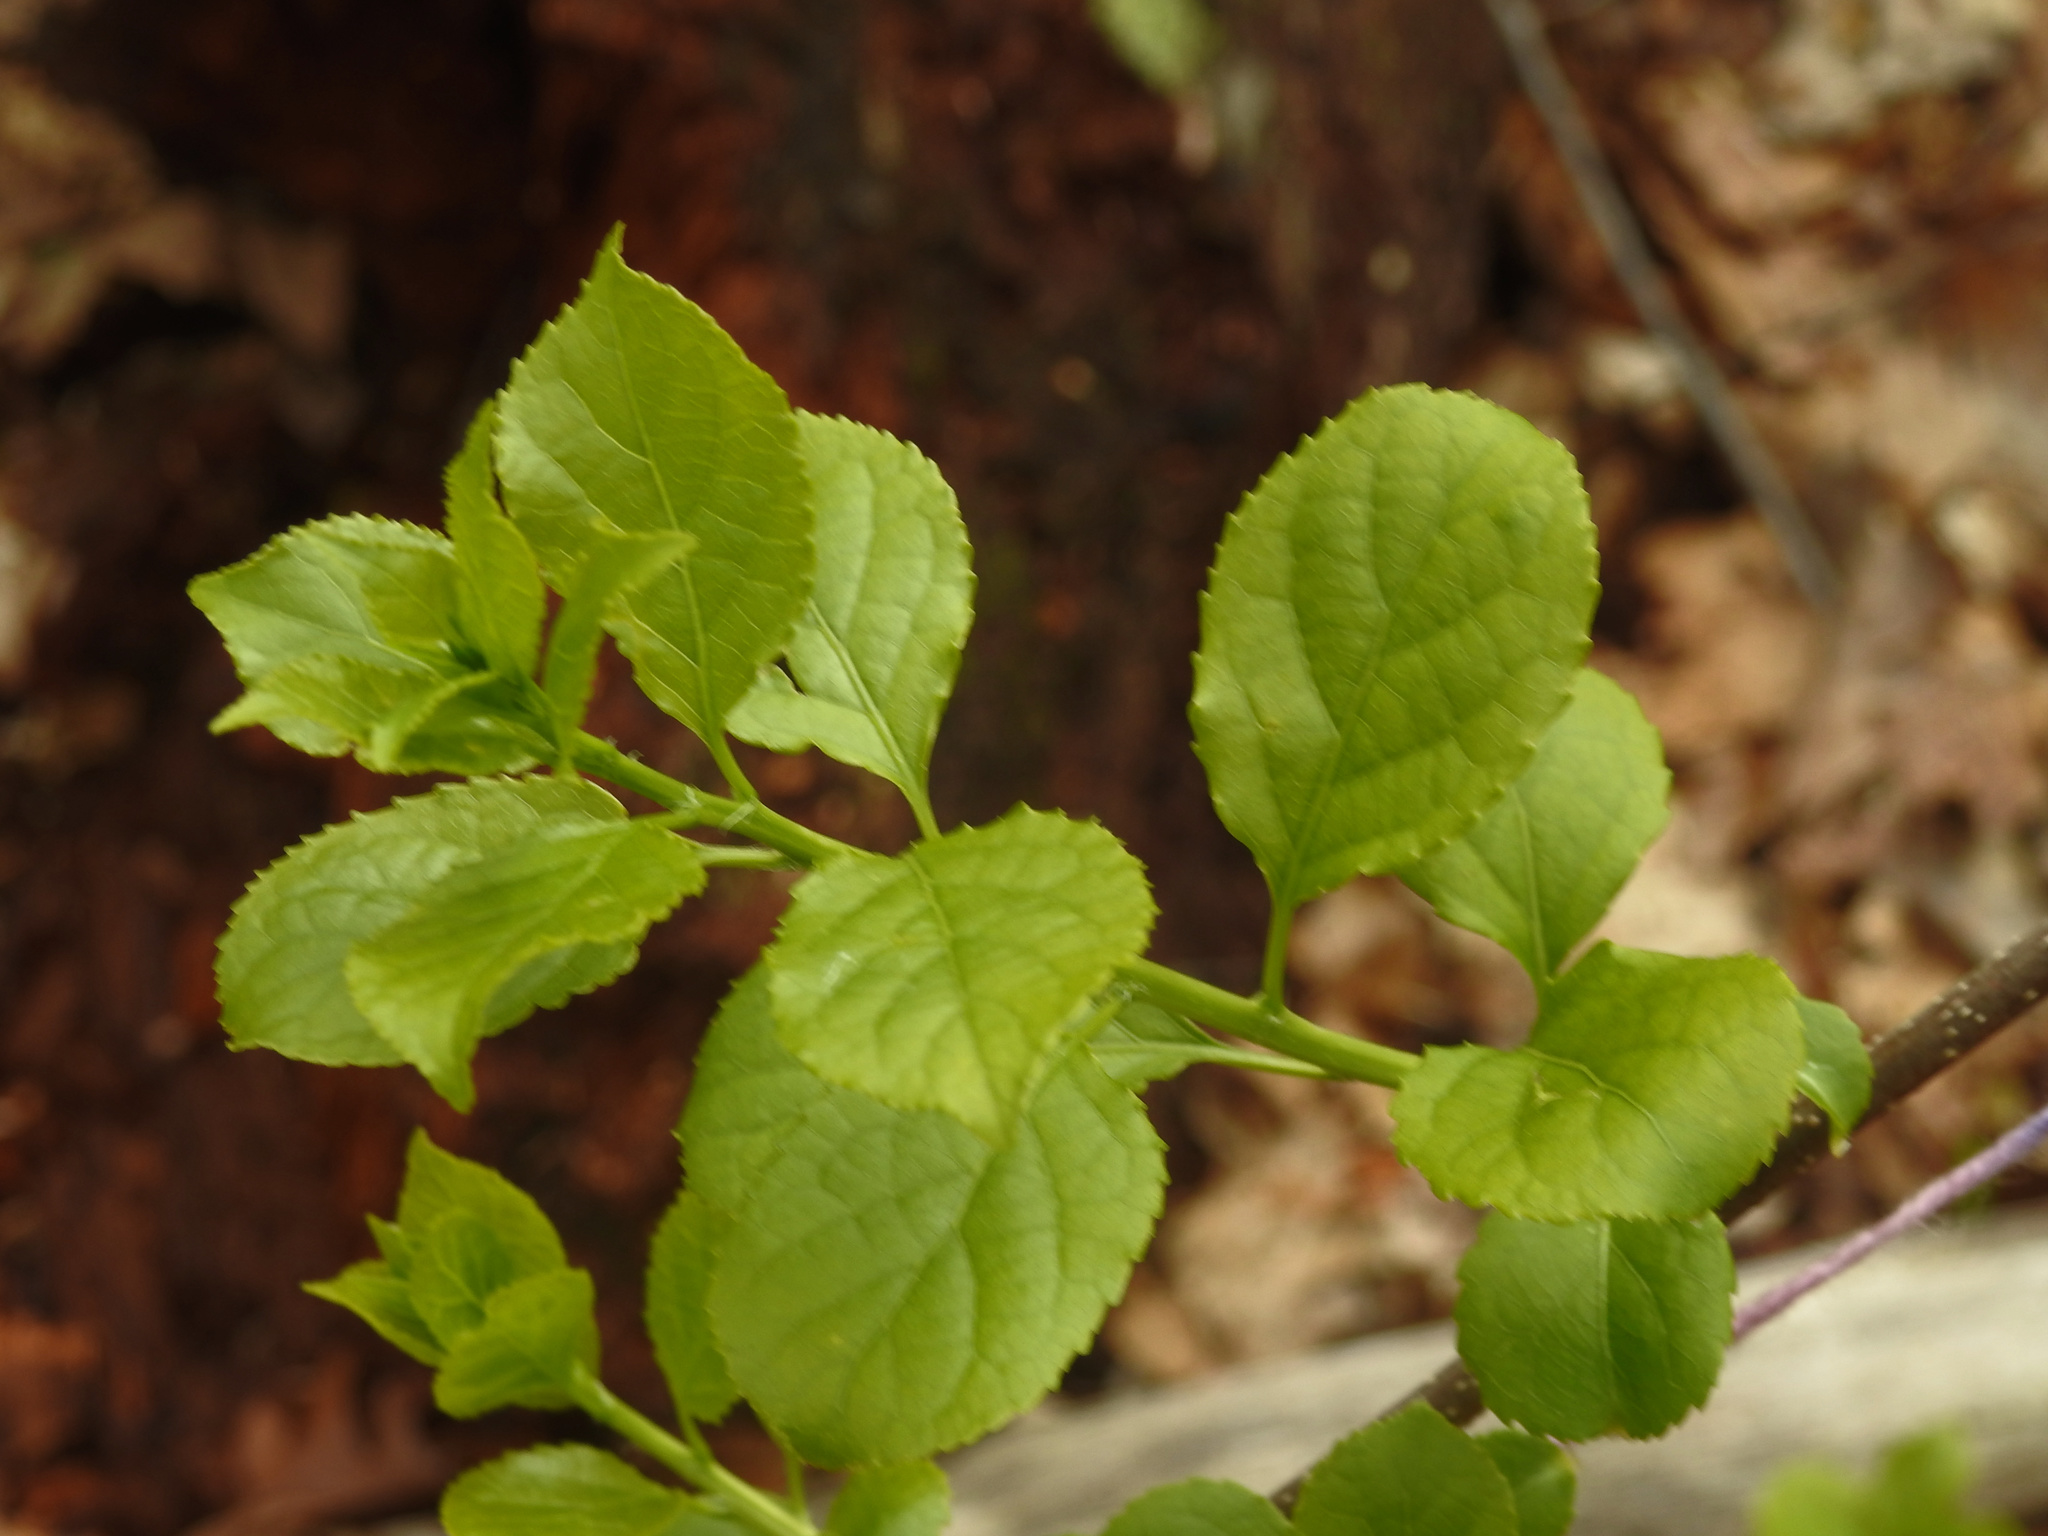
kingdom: Plantae
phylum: Tracheophyta
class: Magnoliopsida
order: Celastrales
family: Celastraceae
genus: Celastrus
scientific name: Celastrus orbiculatus
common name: Oriental bittersweet
